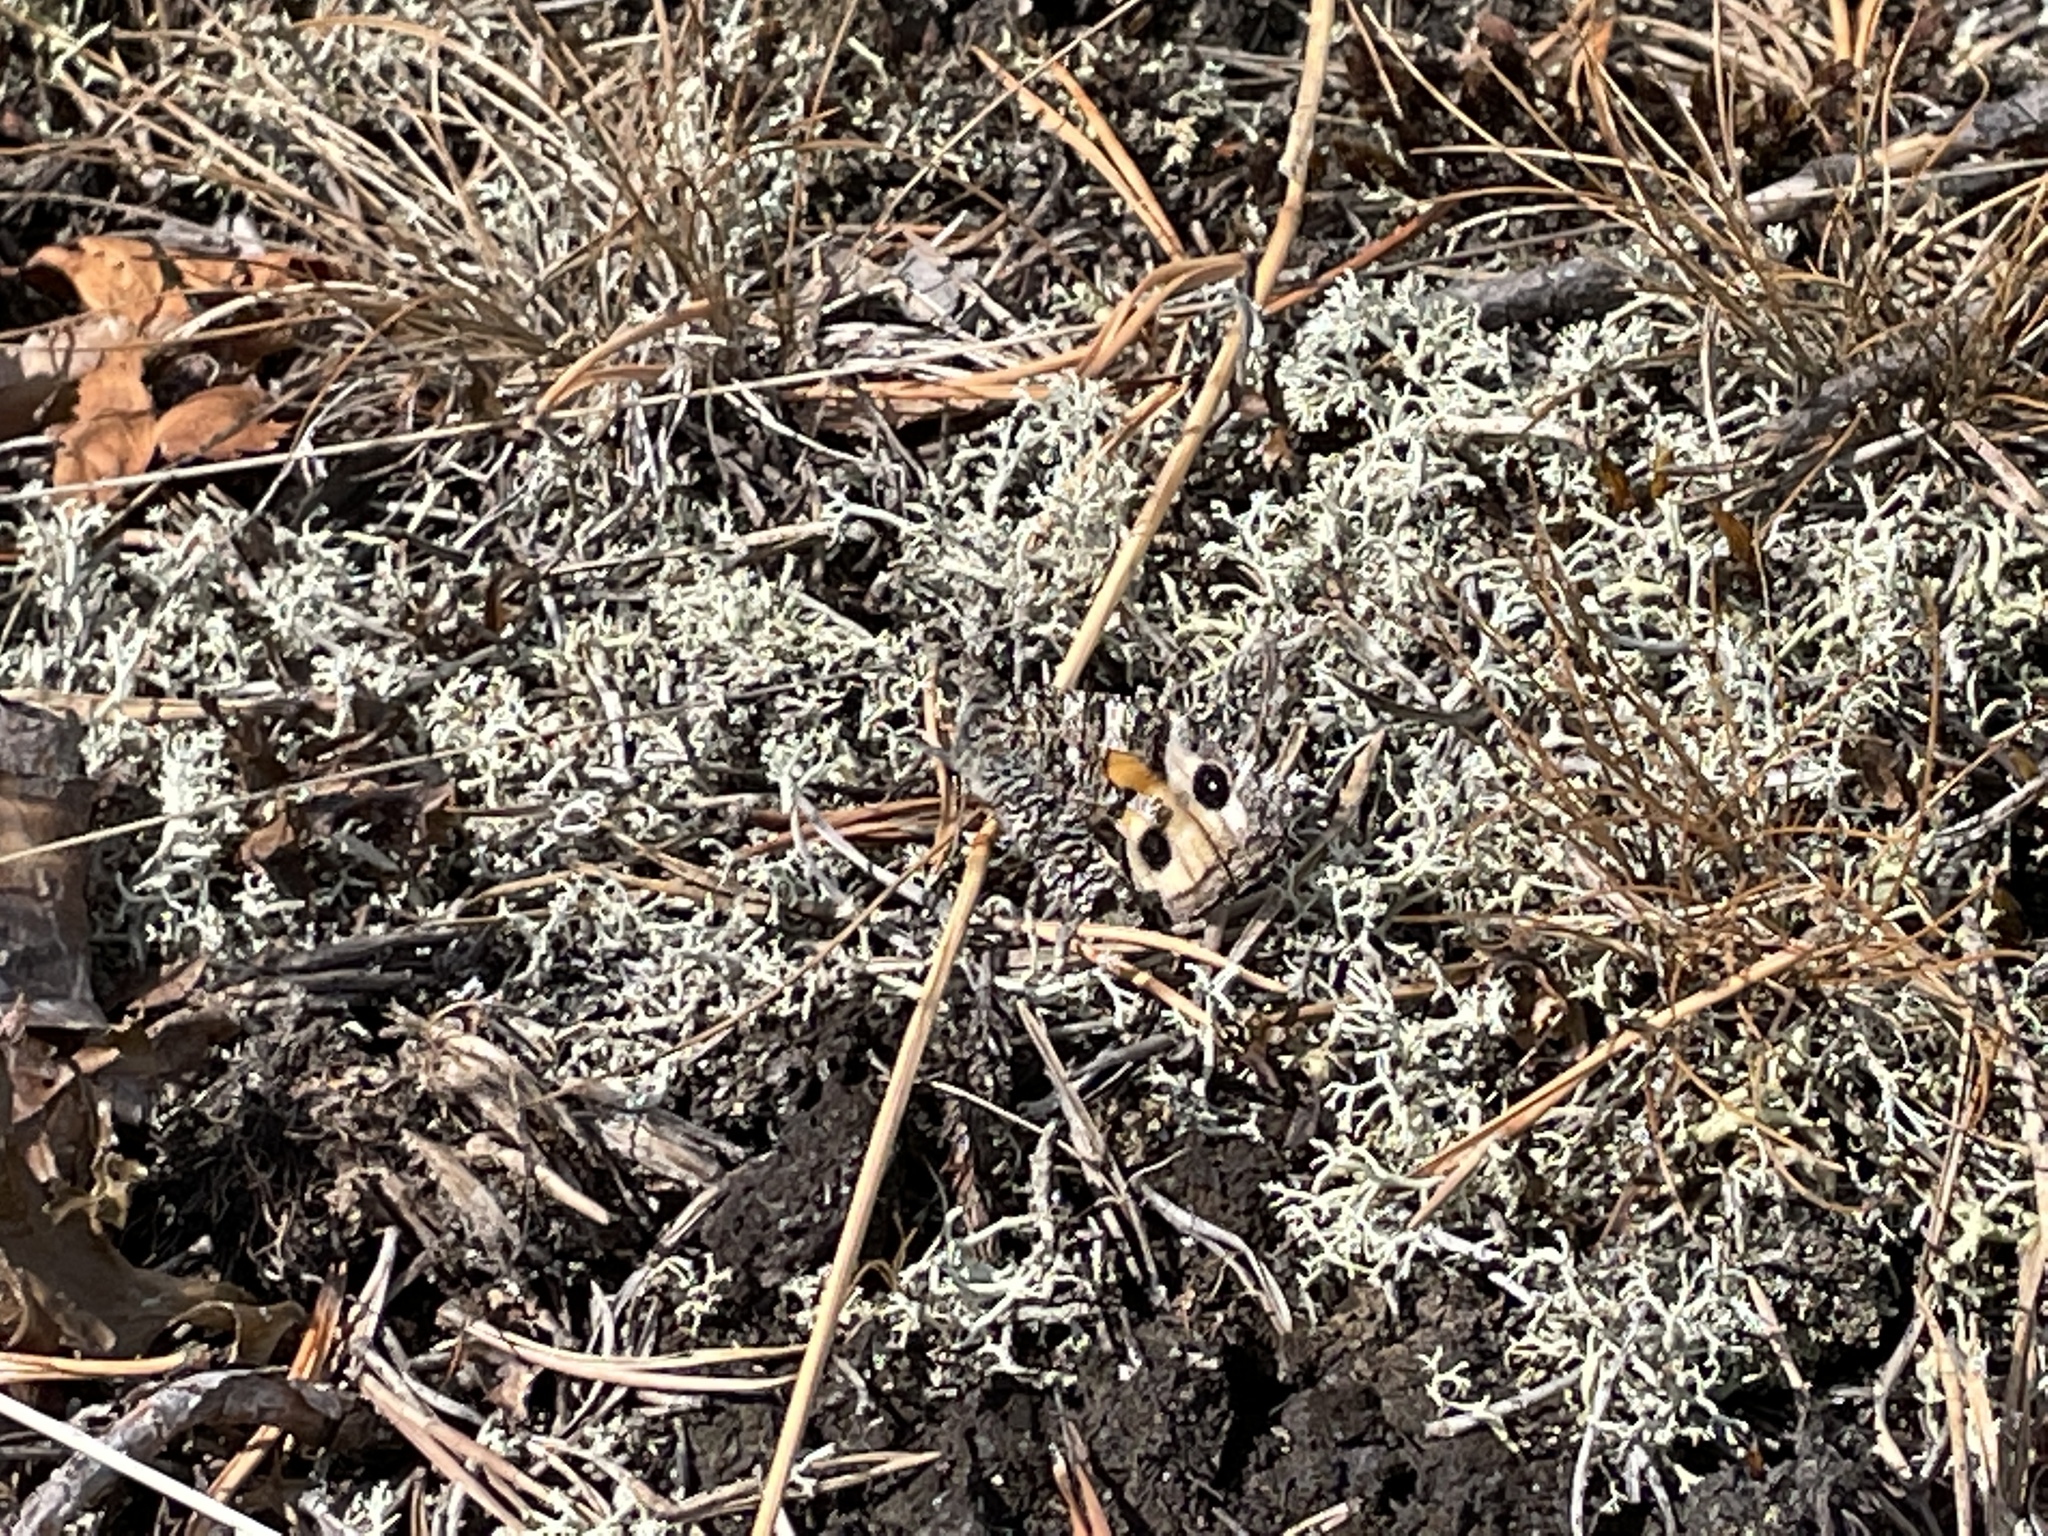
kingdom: Animalia
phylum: Arthropoda
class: Insecta
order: Lepidoptera
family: Nymphalidae
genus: Hipparchia
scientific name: Hipparchia semele
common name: Grayling
